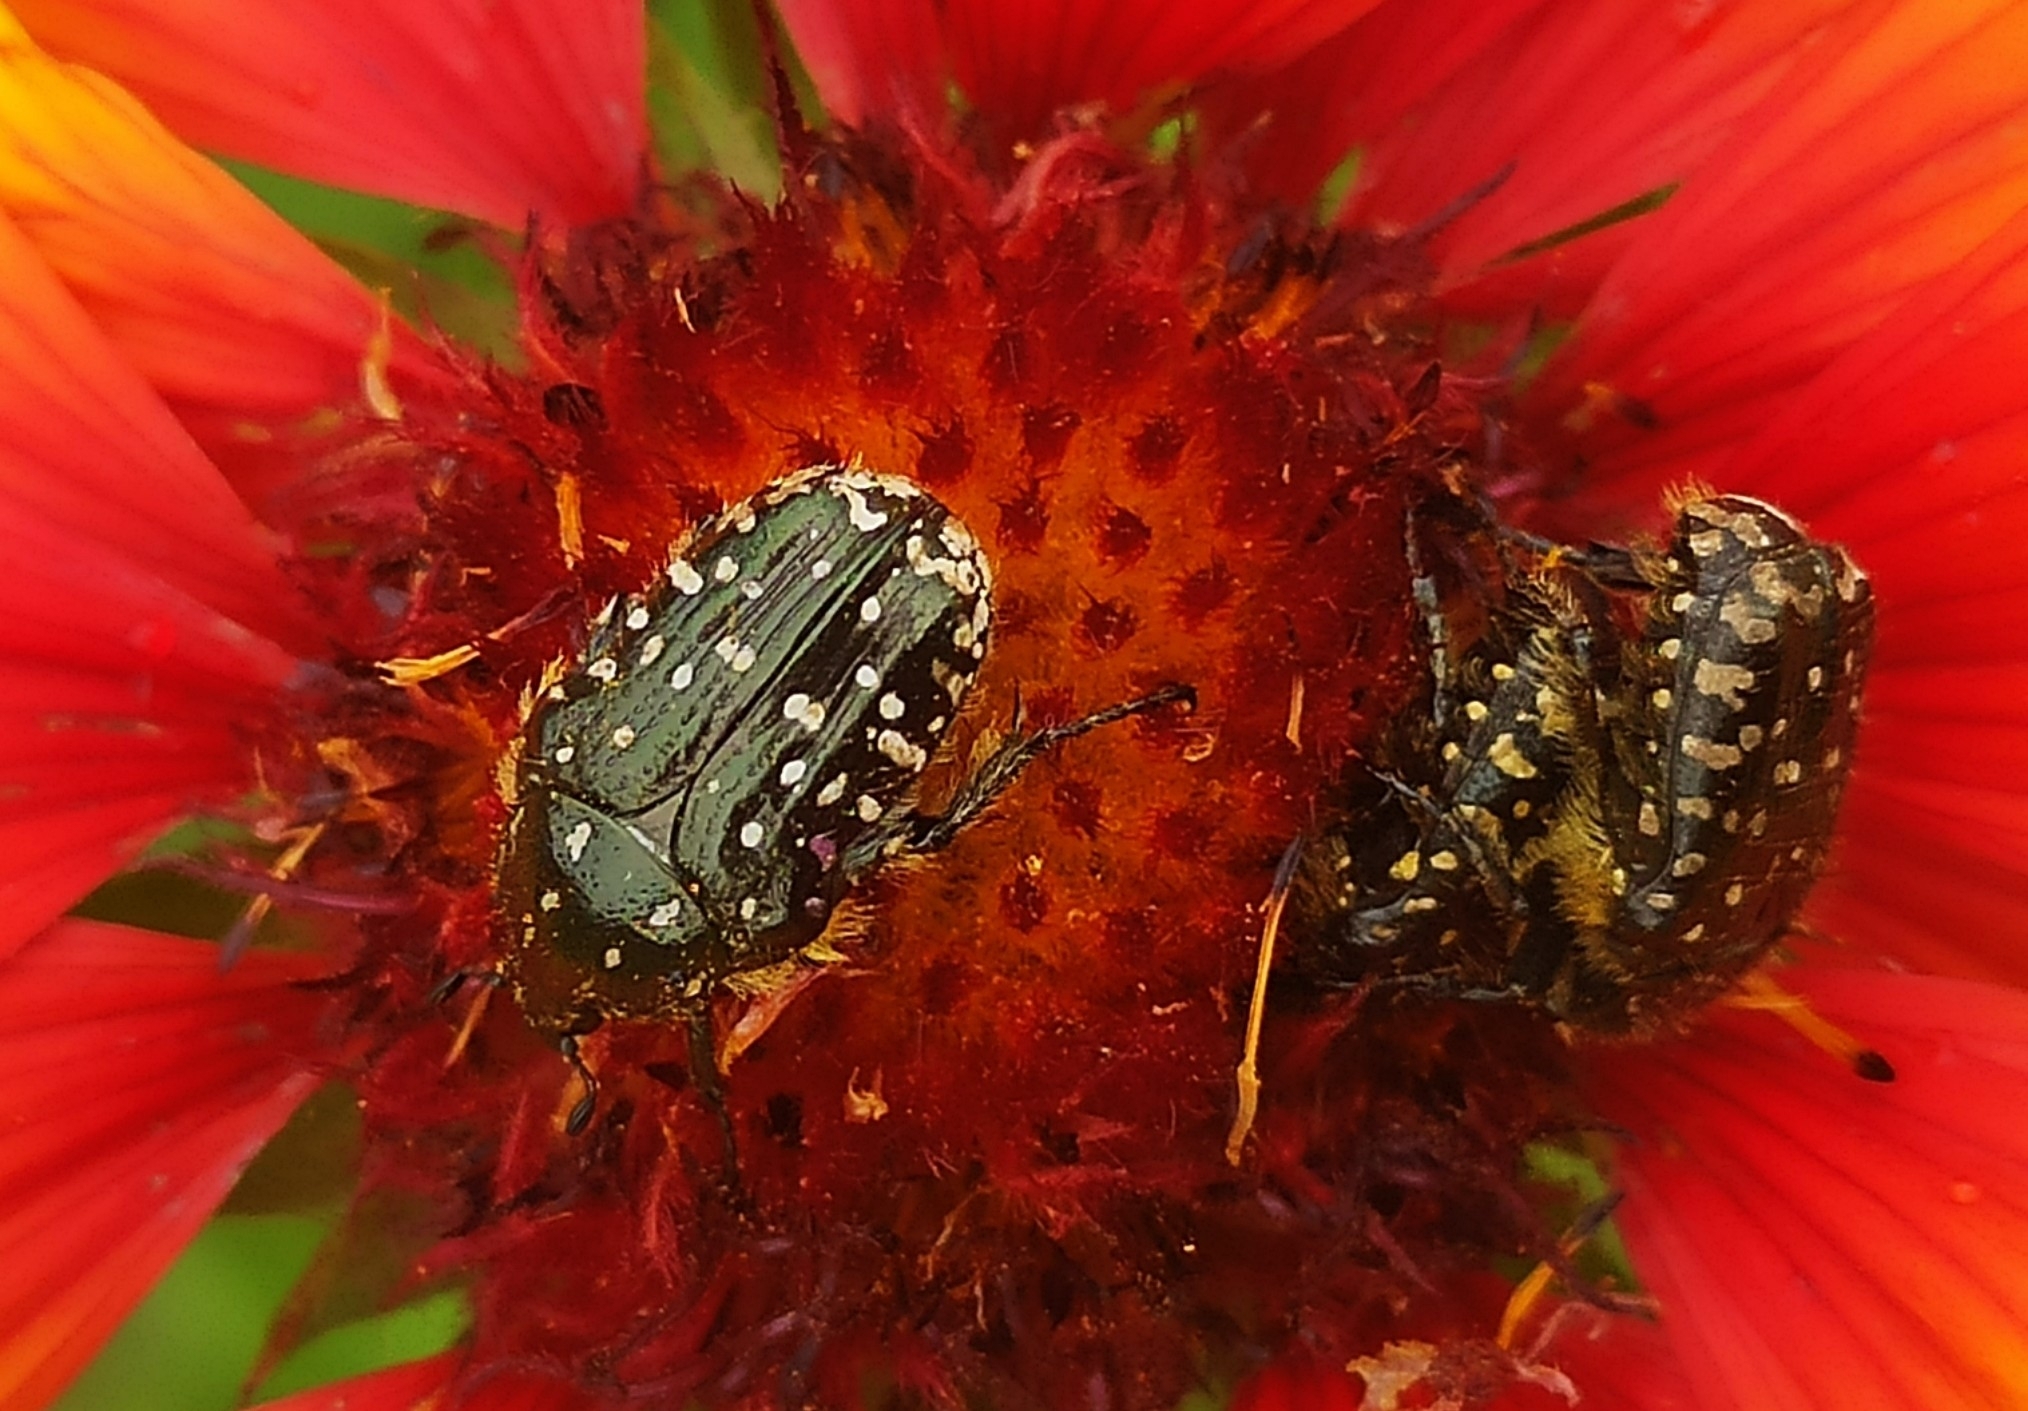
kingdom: Animalia
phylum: Arthropoda
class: Insecta
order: Coleoptera
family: Scarabaeidae
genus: Oxythyrea
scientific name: Oxythyrea funesta
